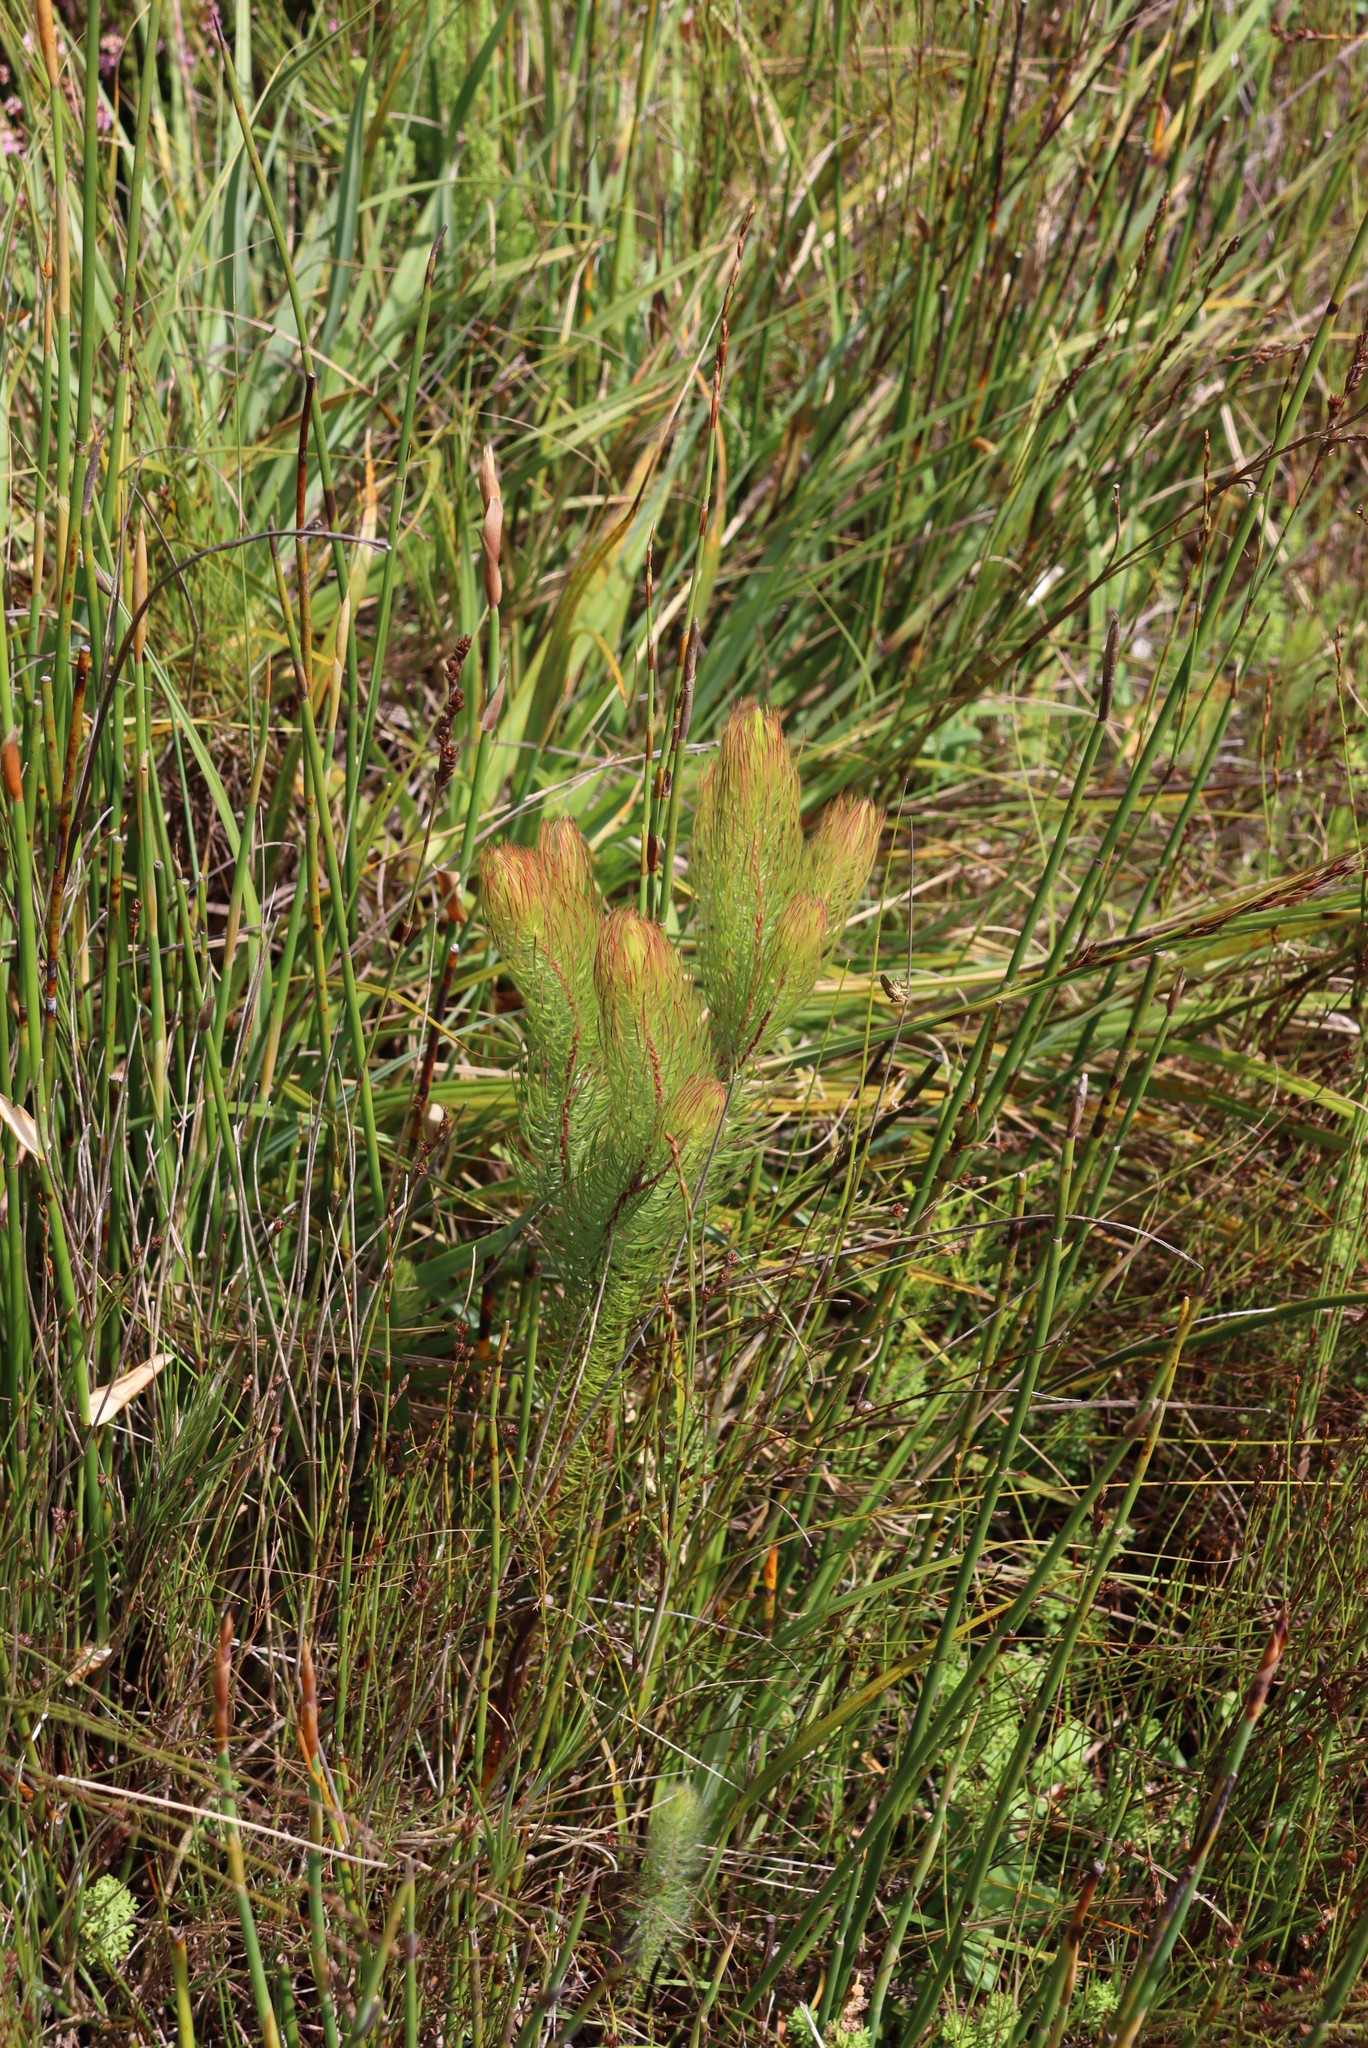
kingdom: Plantae
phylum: Tracheophyta
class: Magnoliopsida
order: Proteales
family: Proteaceae
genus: Spatalla
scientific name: Spatalla setacea
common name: Needle-leaf spoon
